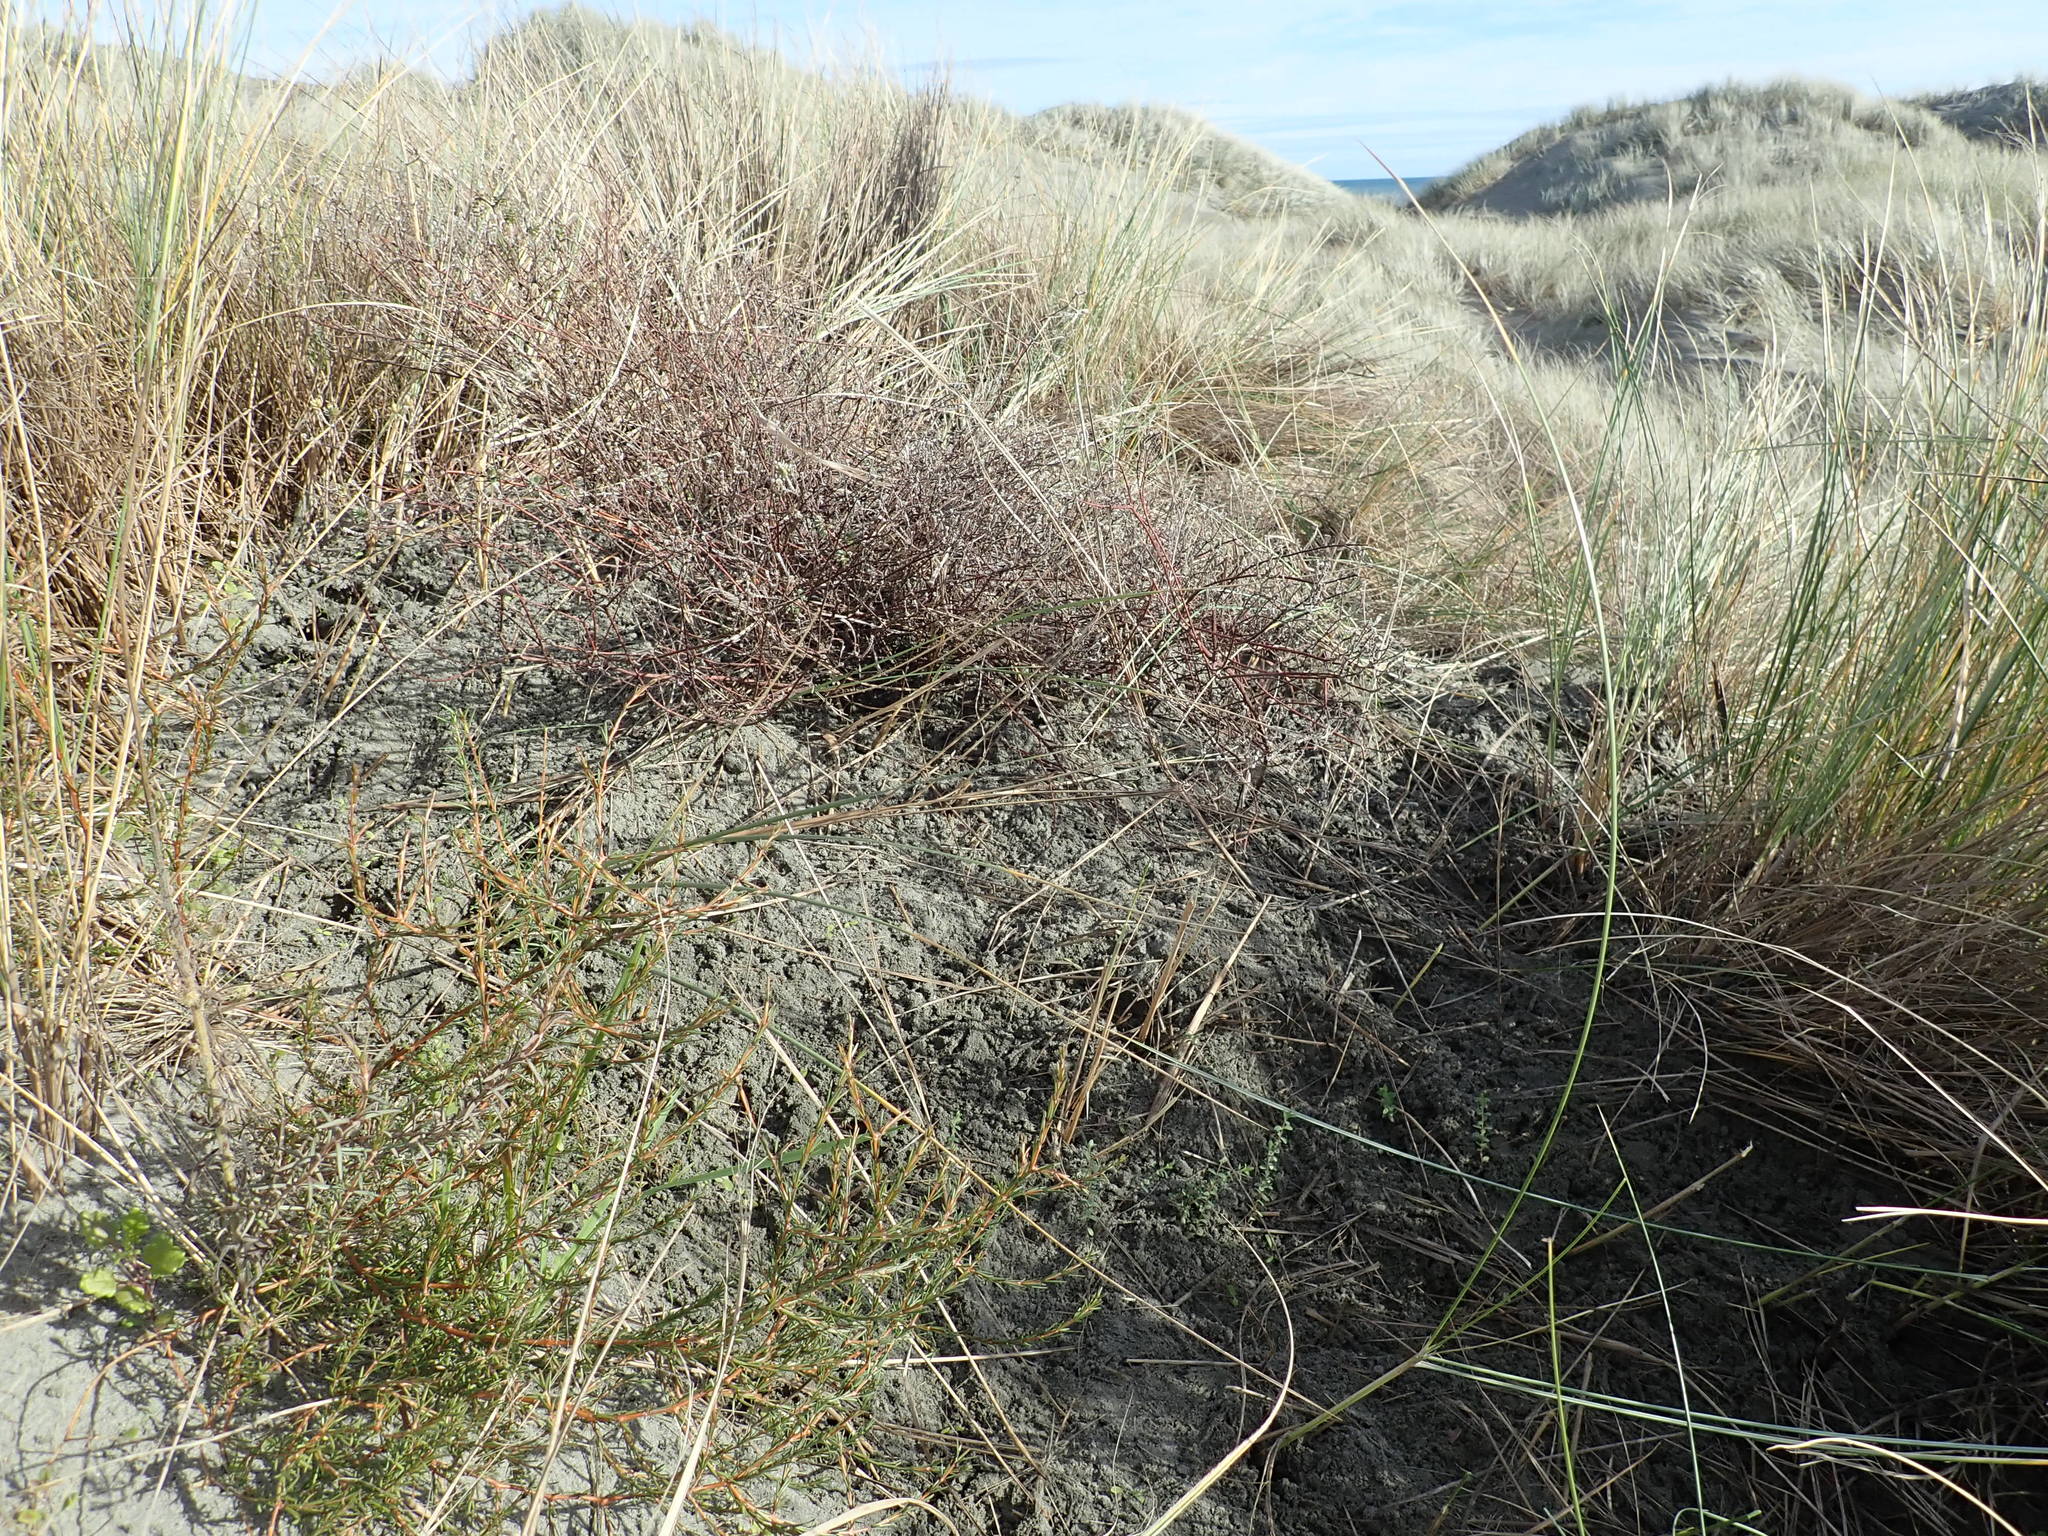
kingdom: Plantae
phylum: Tracheophyta
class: Magnoliopsida
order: Gentianales
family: Rubiaceae
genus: Coprosma
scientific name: Coprosma acerosa
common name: Sand coprosma
